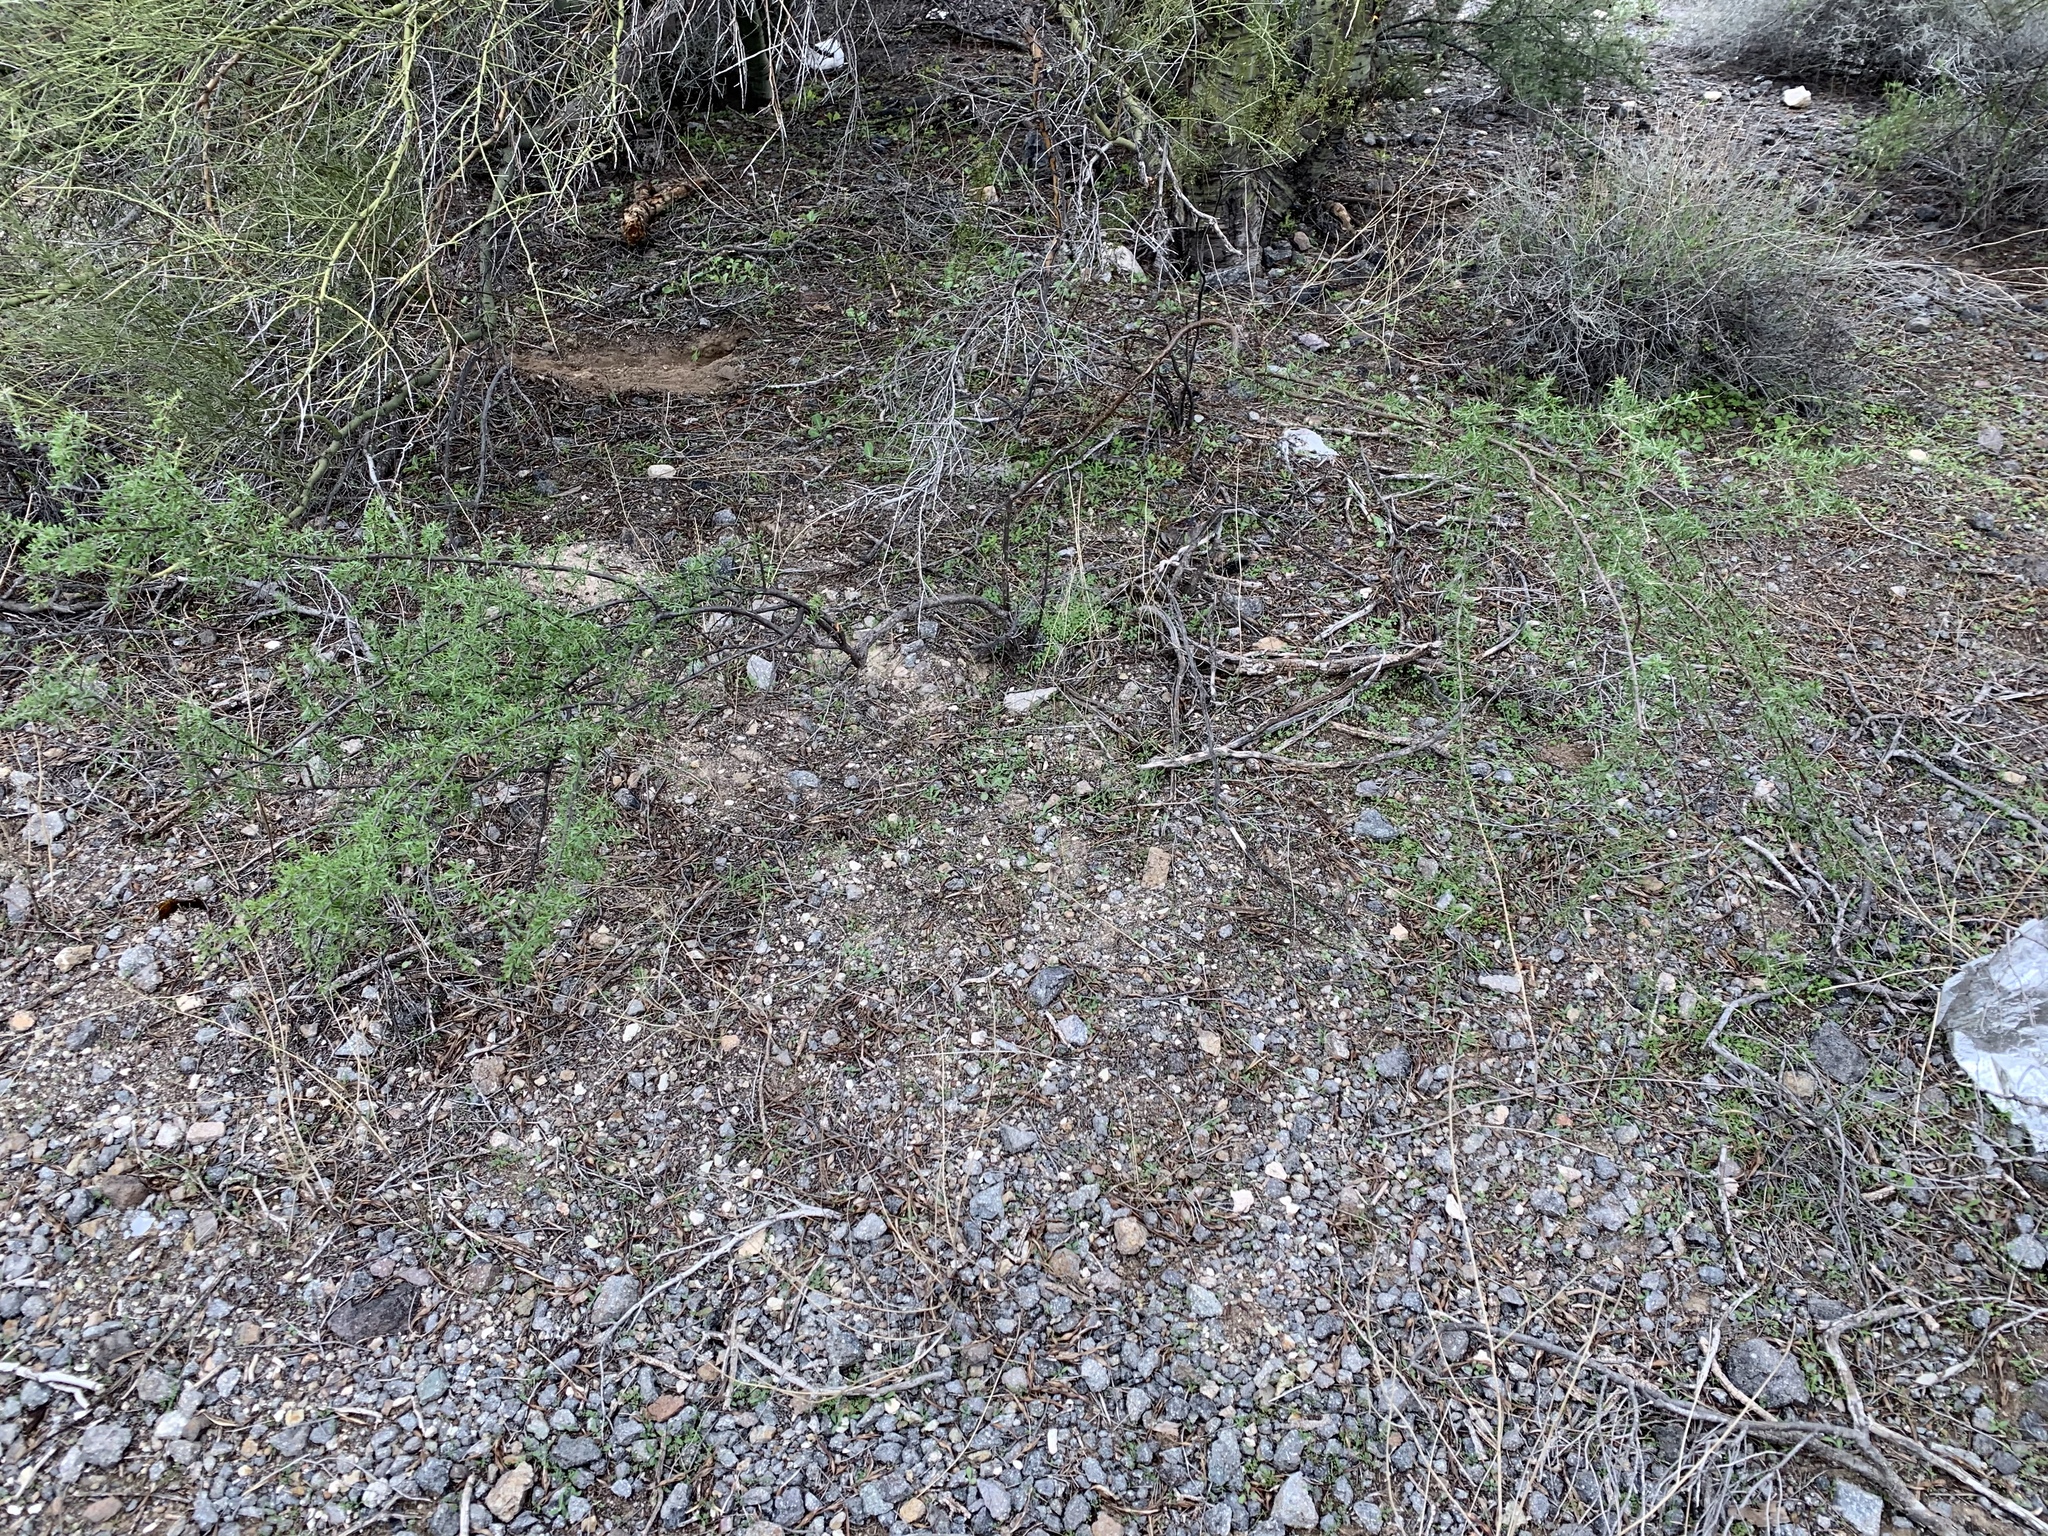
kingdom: Plantae
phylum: Tracheophyta
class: Magnoliopsida
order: Solanales
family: Solanaceae
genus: Lycium
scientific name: Lycium berlandieri
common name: Berlandier wolfberry
